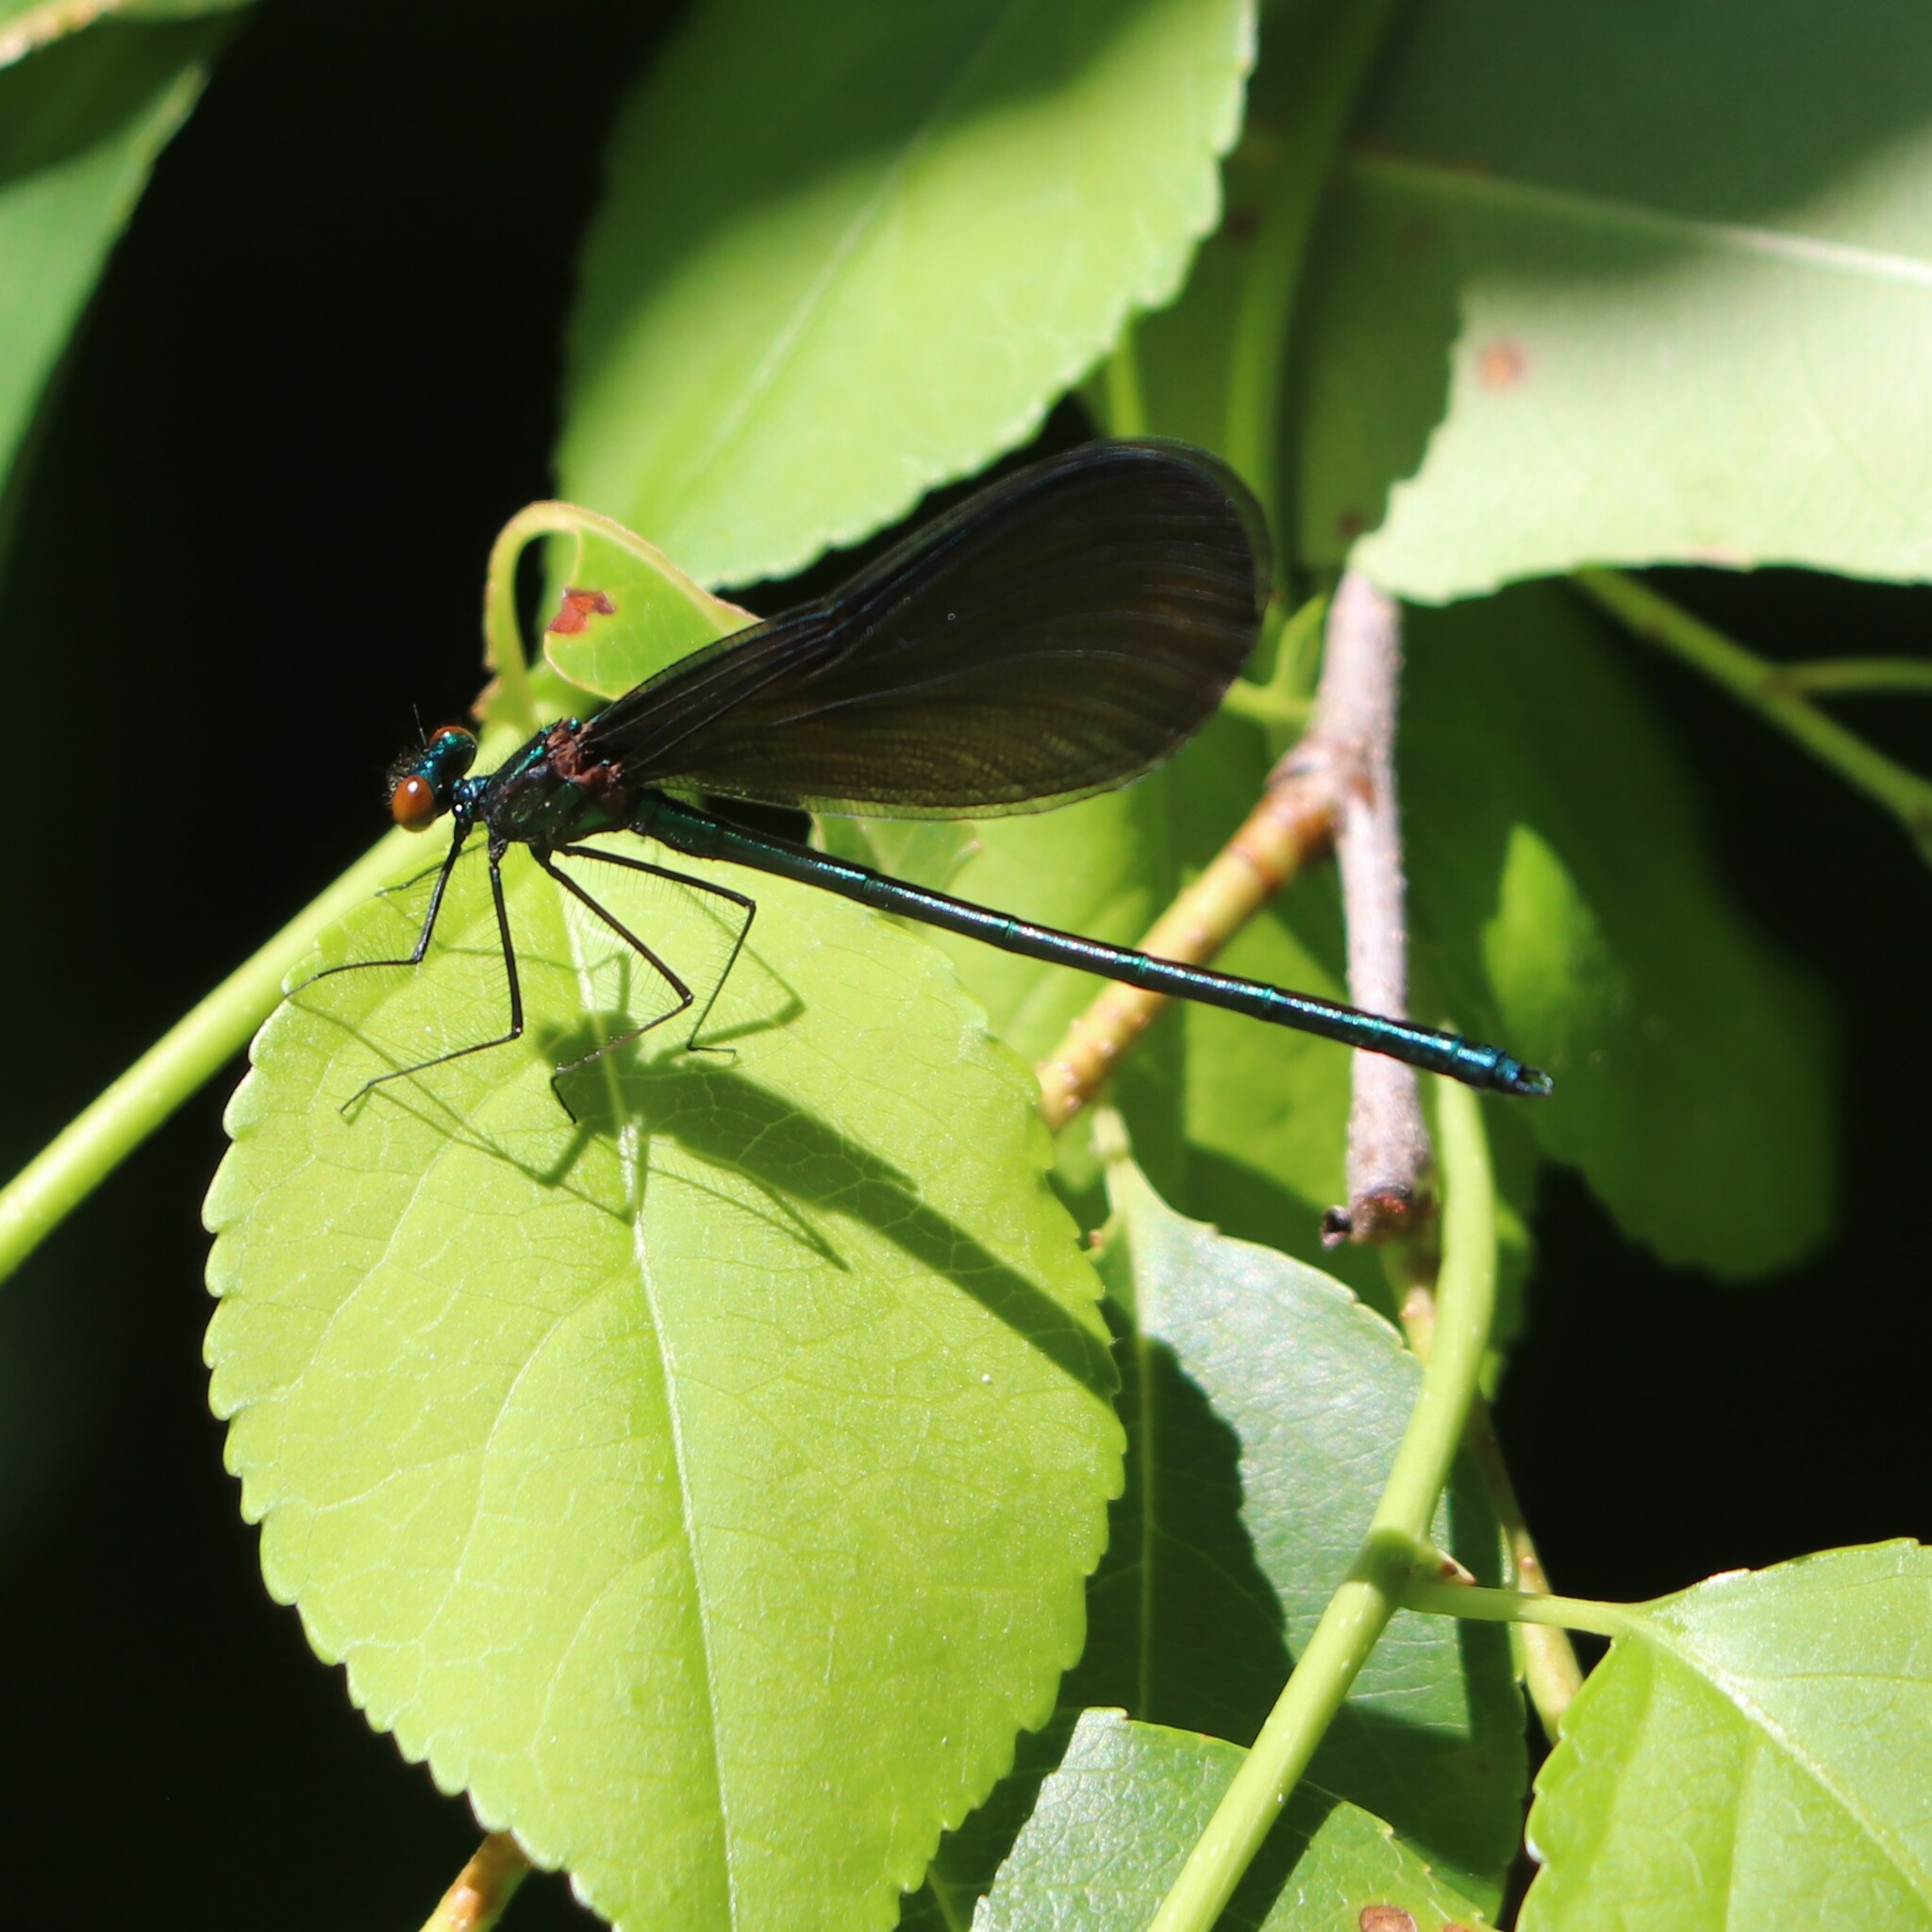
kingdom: Animalia
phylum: Arthropoda
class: Insecta
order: Odonata
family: Calopterygidae
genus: Calopteryx
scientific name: Calopteryx maculata
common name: Ebony jewelwing
